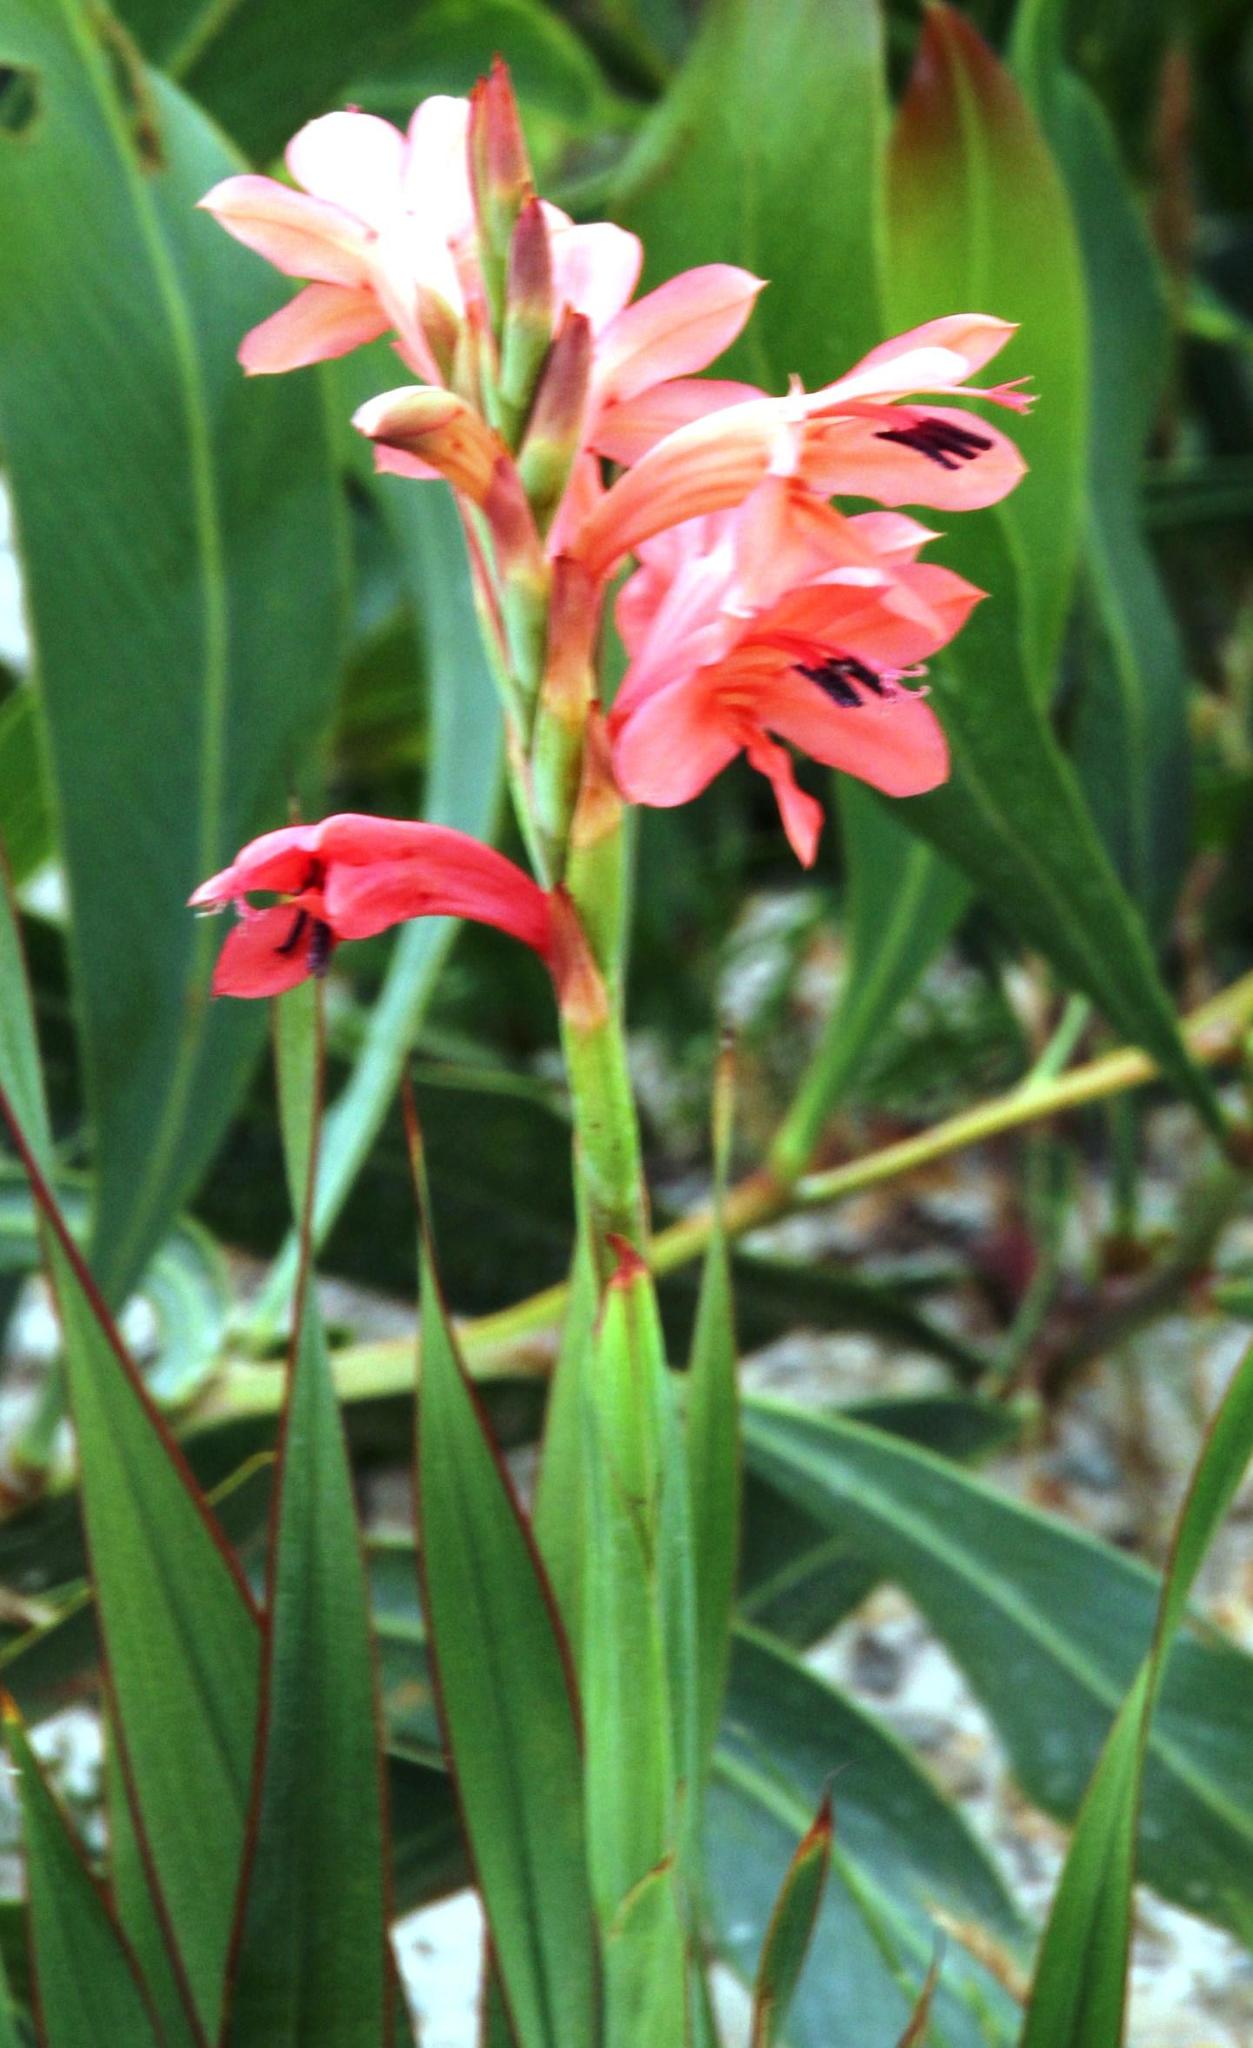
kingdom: Plantae
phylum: Tracheophyta
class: Liliopsida
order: Asparagales
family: Iridaceae
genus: Watsonia
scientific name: Watsonia coccinea
